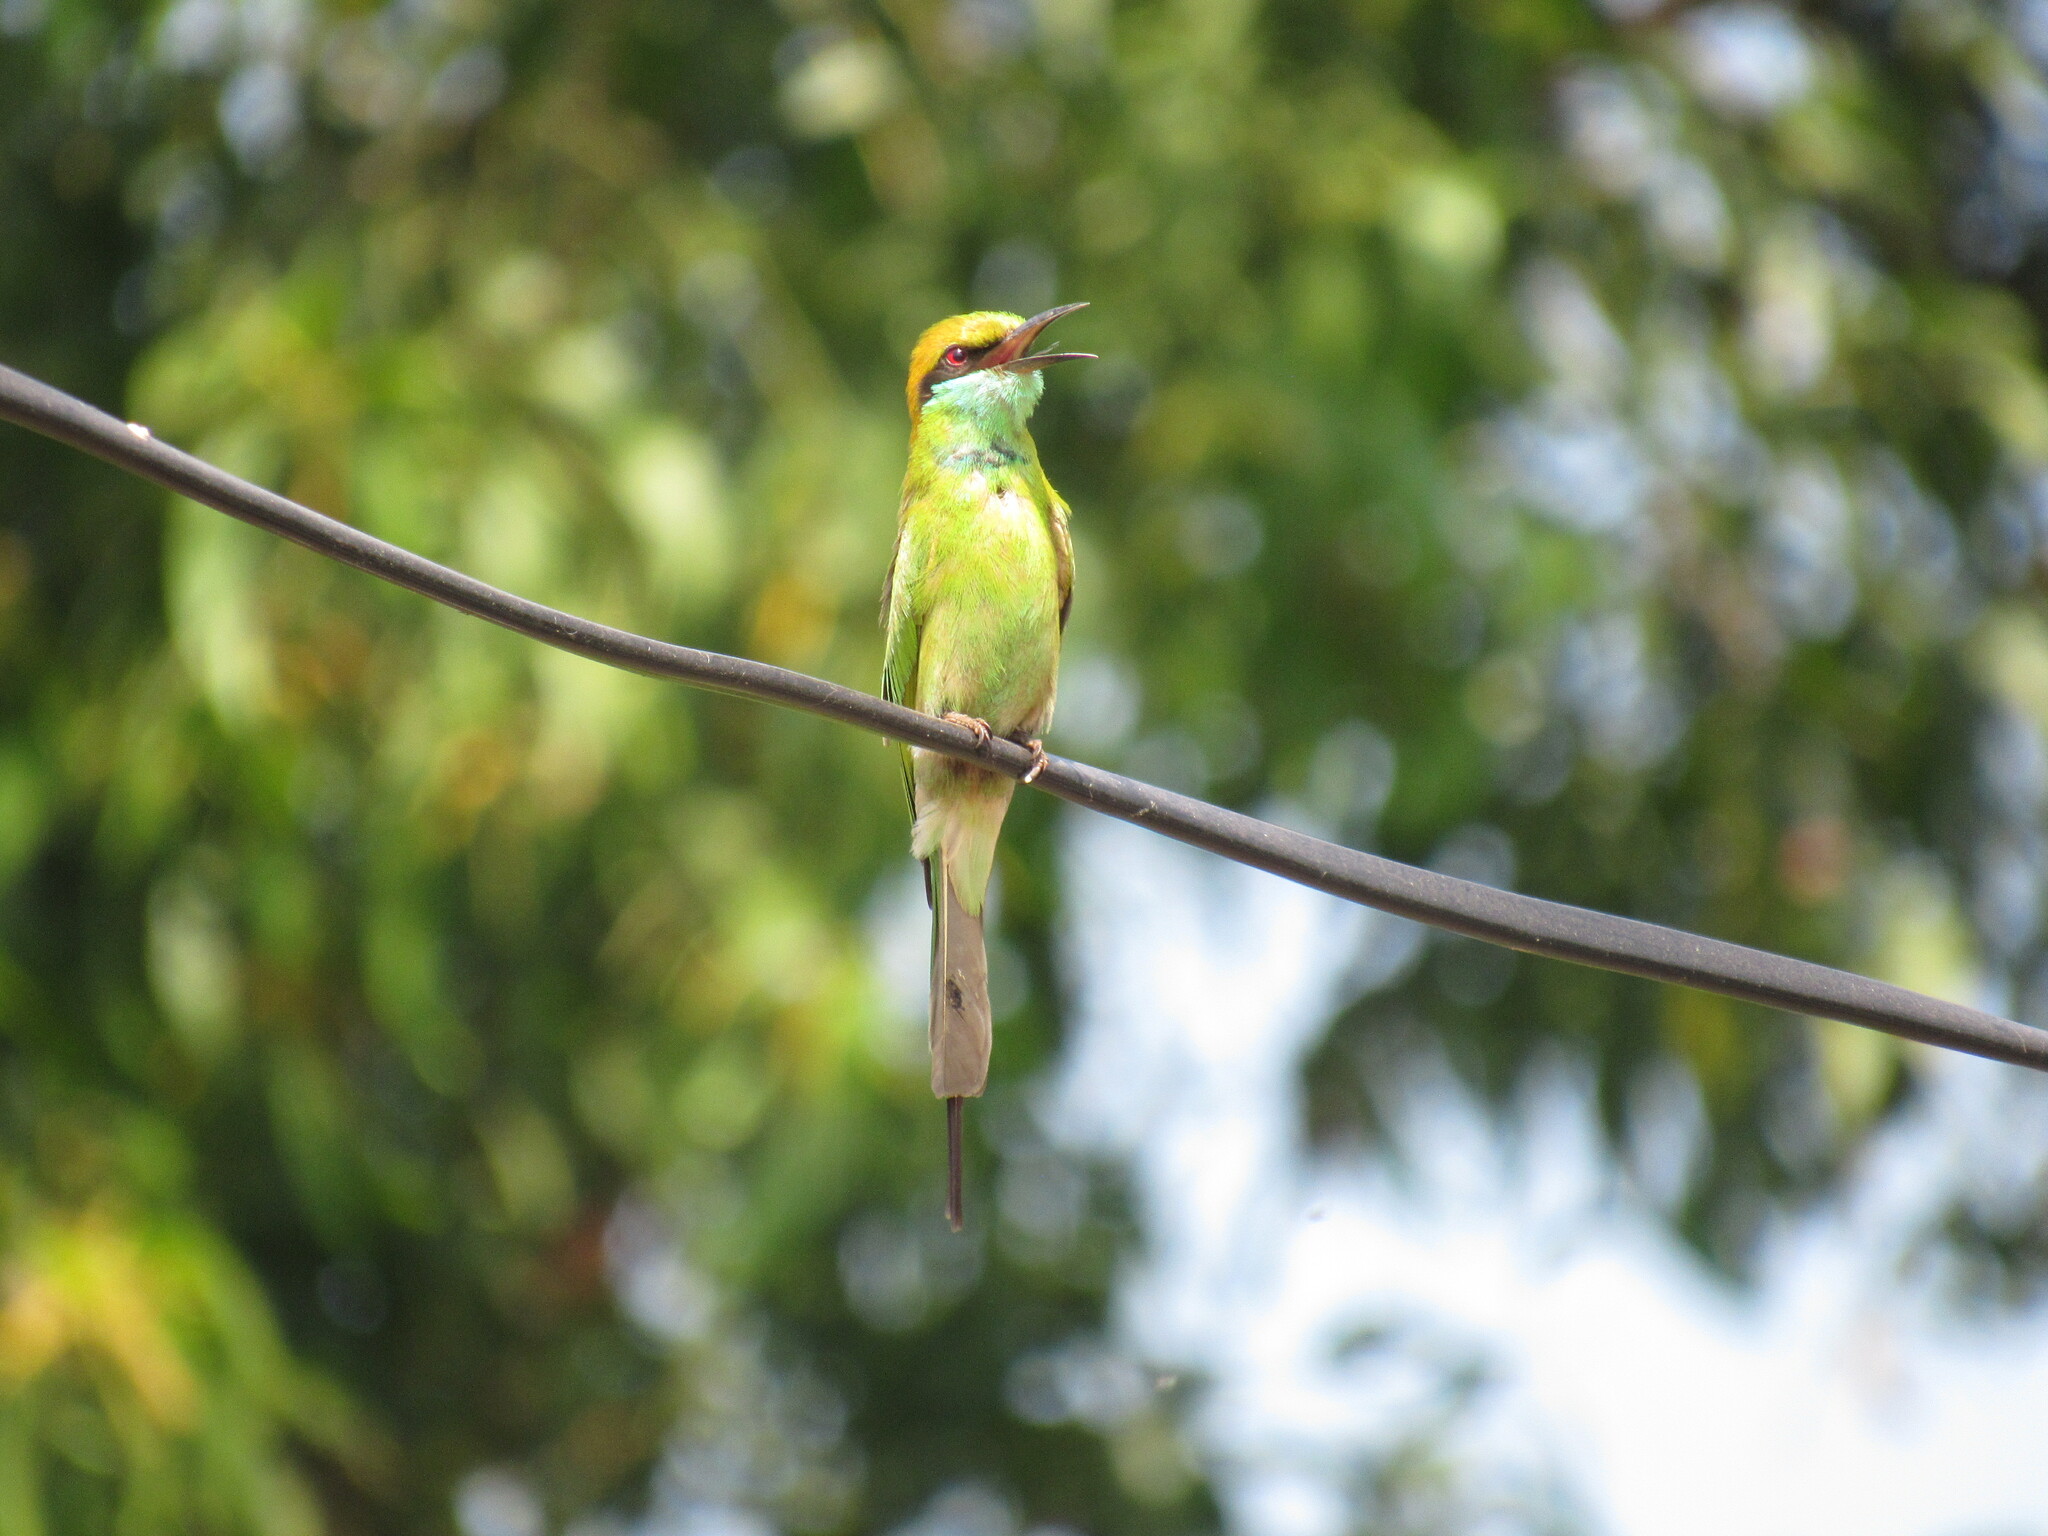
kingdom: Animalia
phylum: Chordata
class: Aves
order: Coraciiformes
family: Meropidae
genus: Merops
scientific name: Merops orientalis
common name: Green bee-eater
